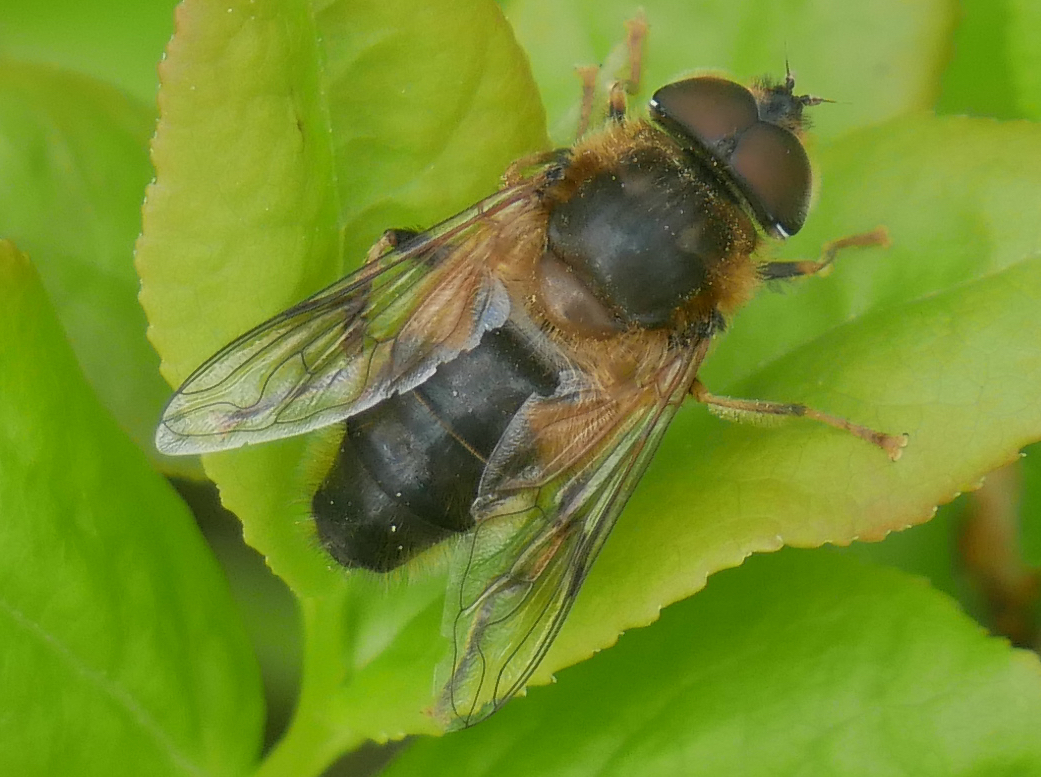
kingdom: Animalia
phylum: Arthropoda
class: Insecta
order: Diptera
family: Syrphidae
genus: Eristalis
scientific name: Eristalis pertinax
